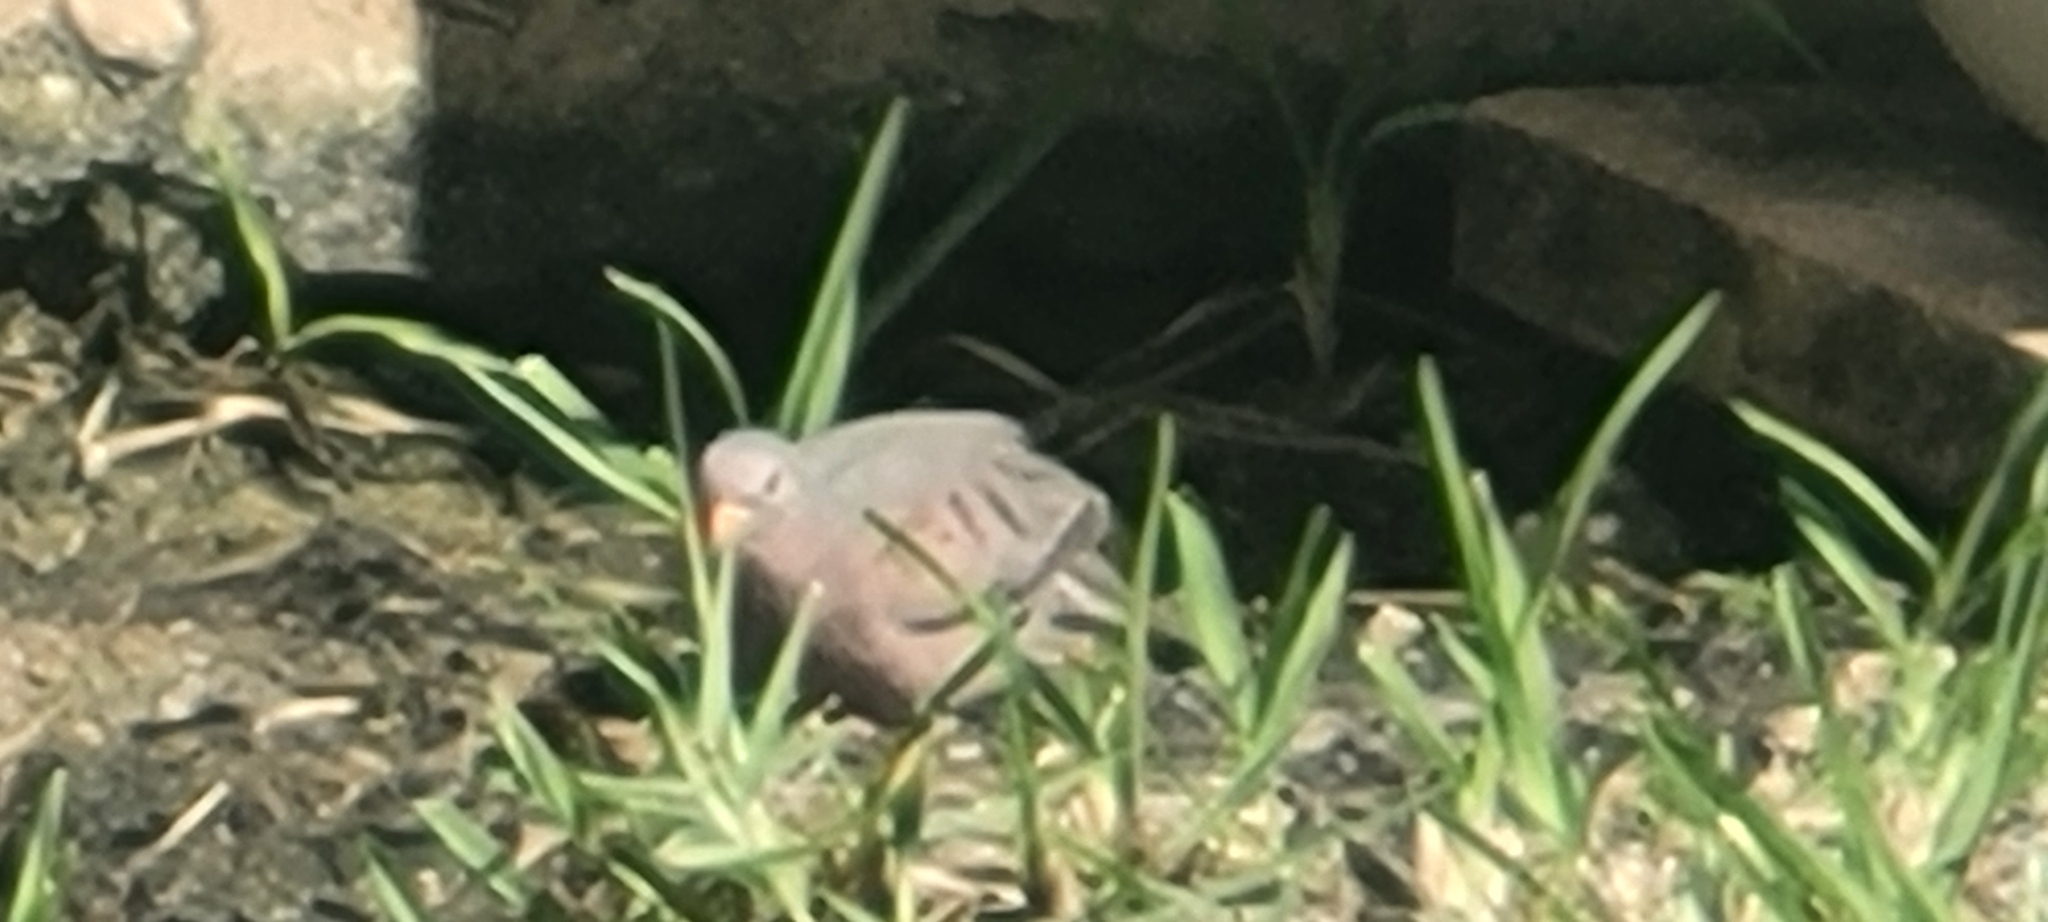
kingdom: Animalia
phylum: Chordata
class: Aves
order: Columbiformes
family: Columbidae
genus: Columbina
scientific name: Columbina passerina
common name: Common ground-dove
